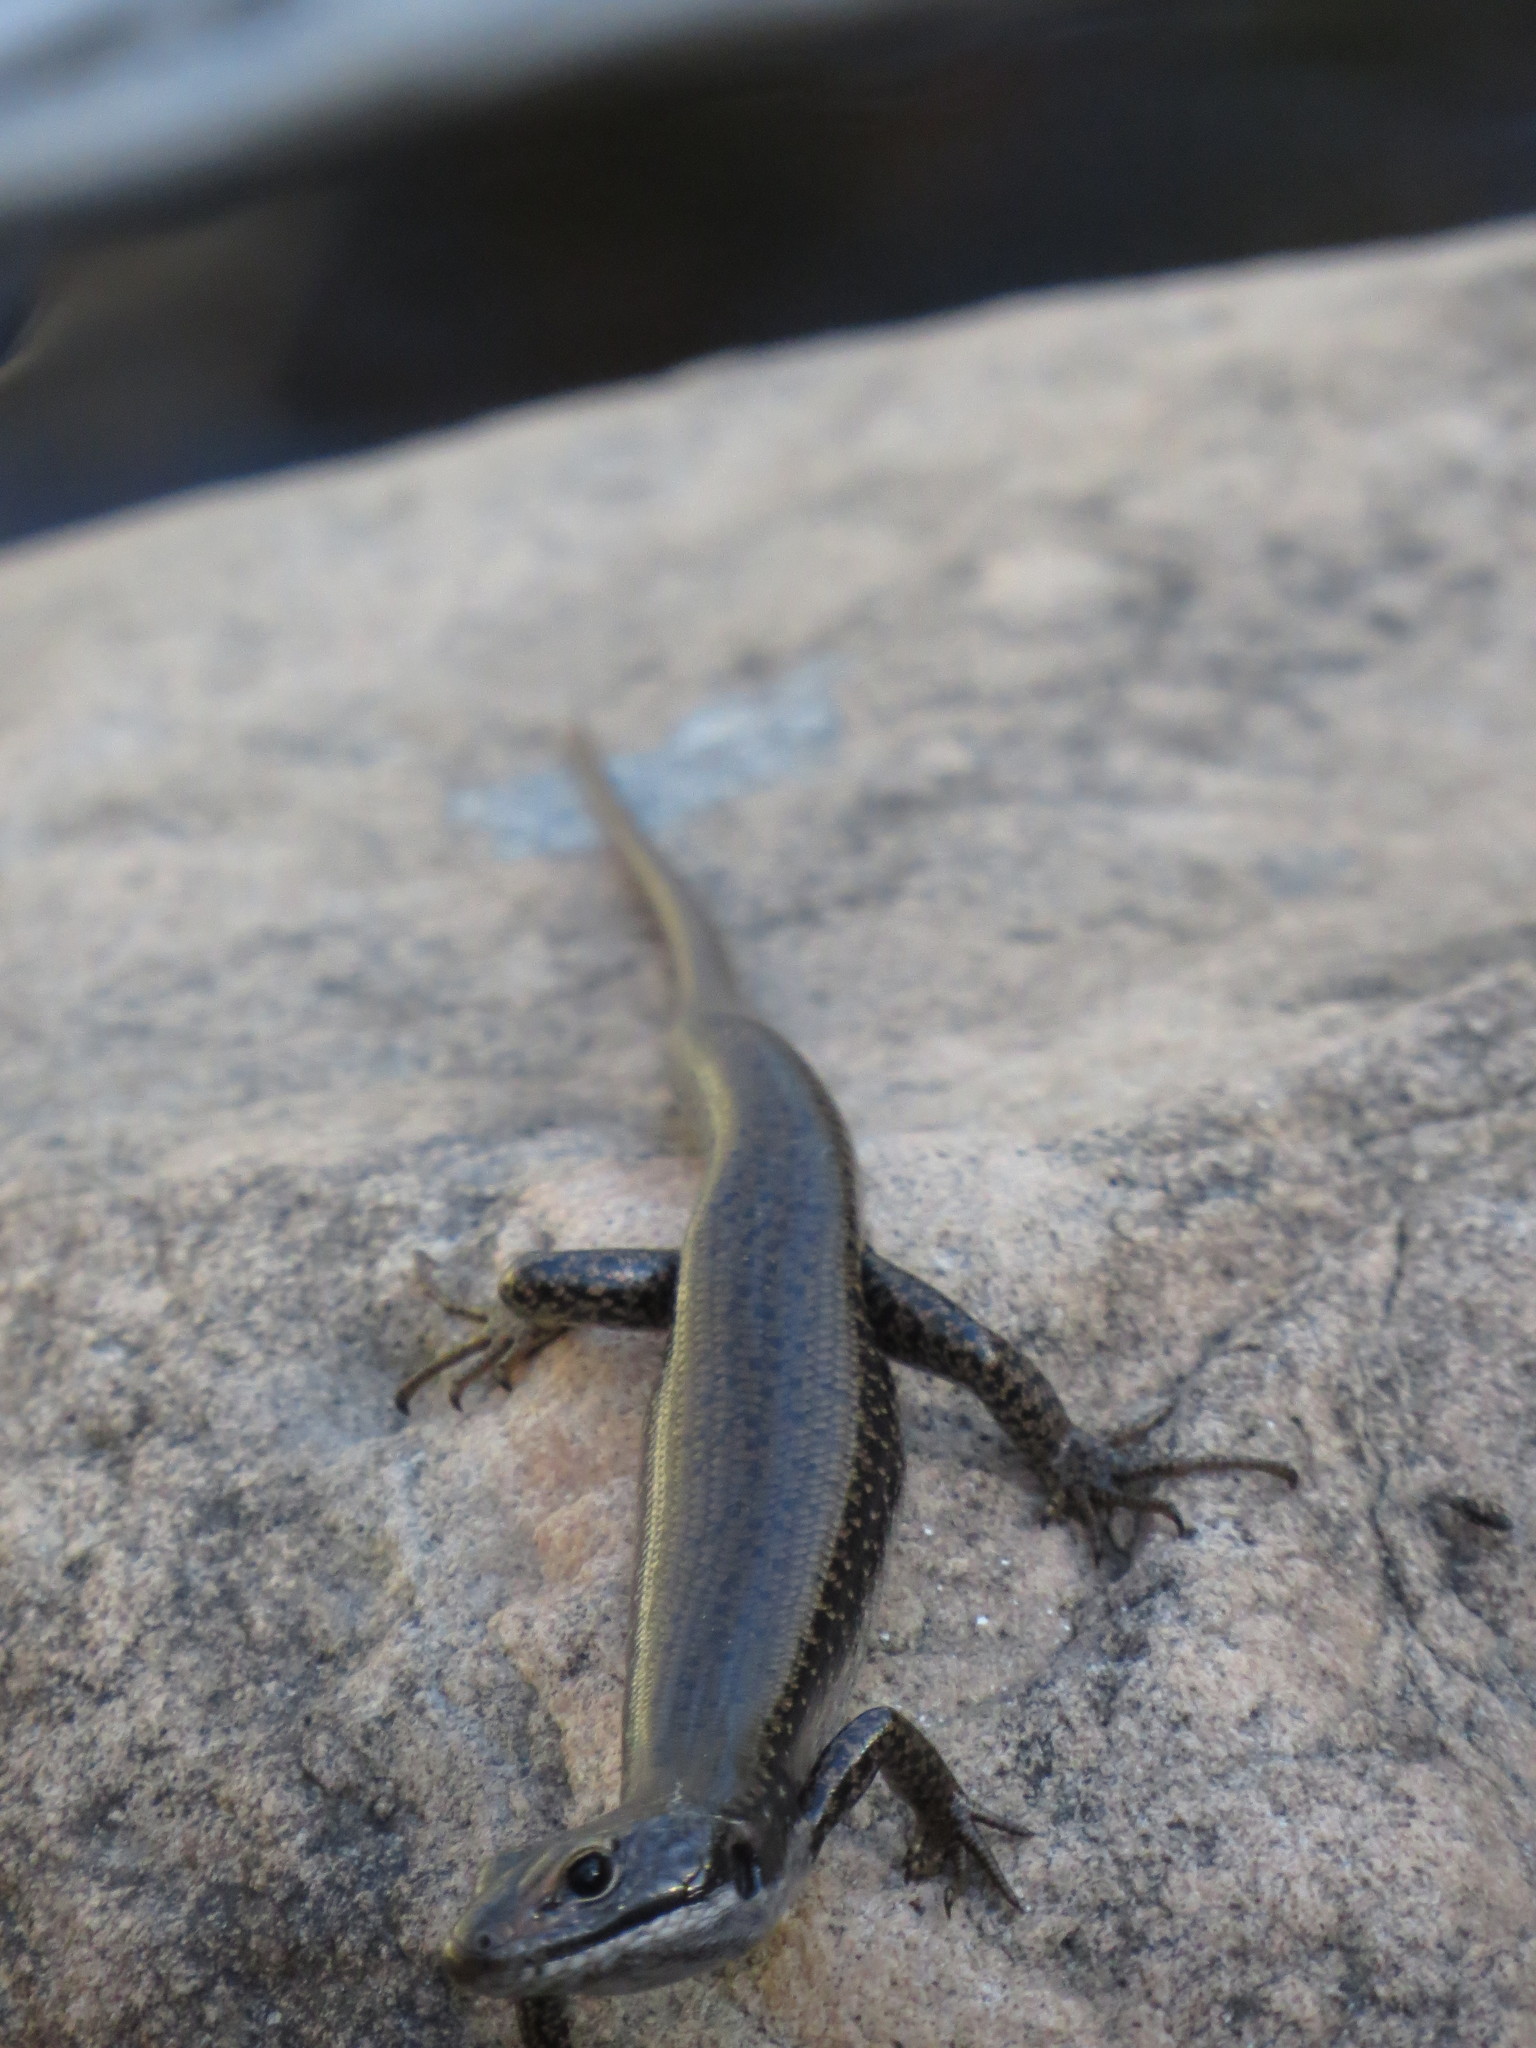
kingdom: Animalia
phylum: Chordata
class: Squamata
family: Scincidae
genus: Eulamprus
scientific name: Eulamprus tympanum
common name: Cool-temperate water-skink
